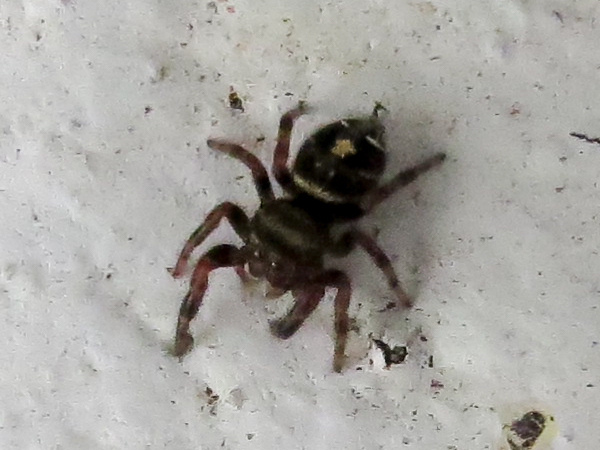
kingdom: Animalia
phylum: Arthropoda
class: Arachnida
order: Araneae
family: Salticidae
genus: Phidippus
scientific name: Phidippus audax
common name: Bold jumper
